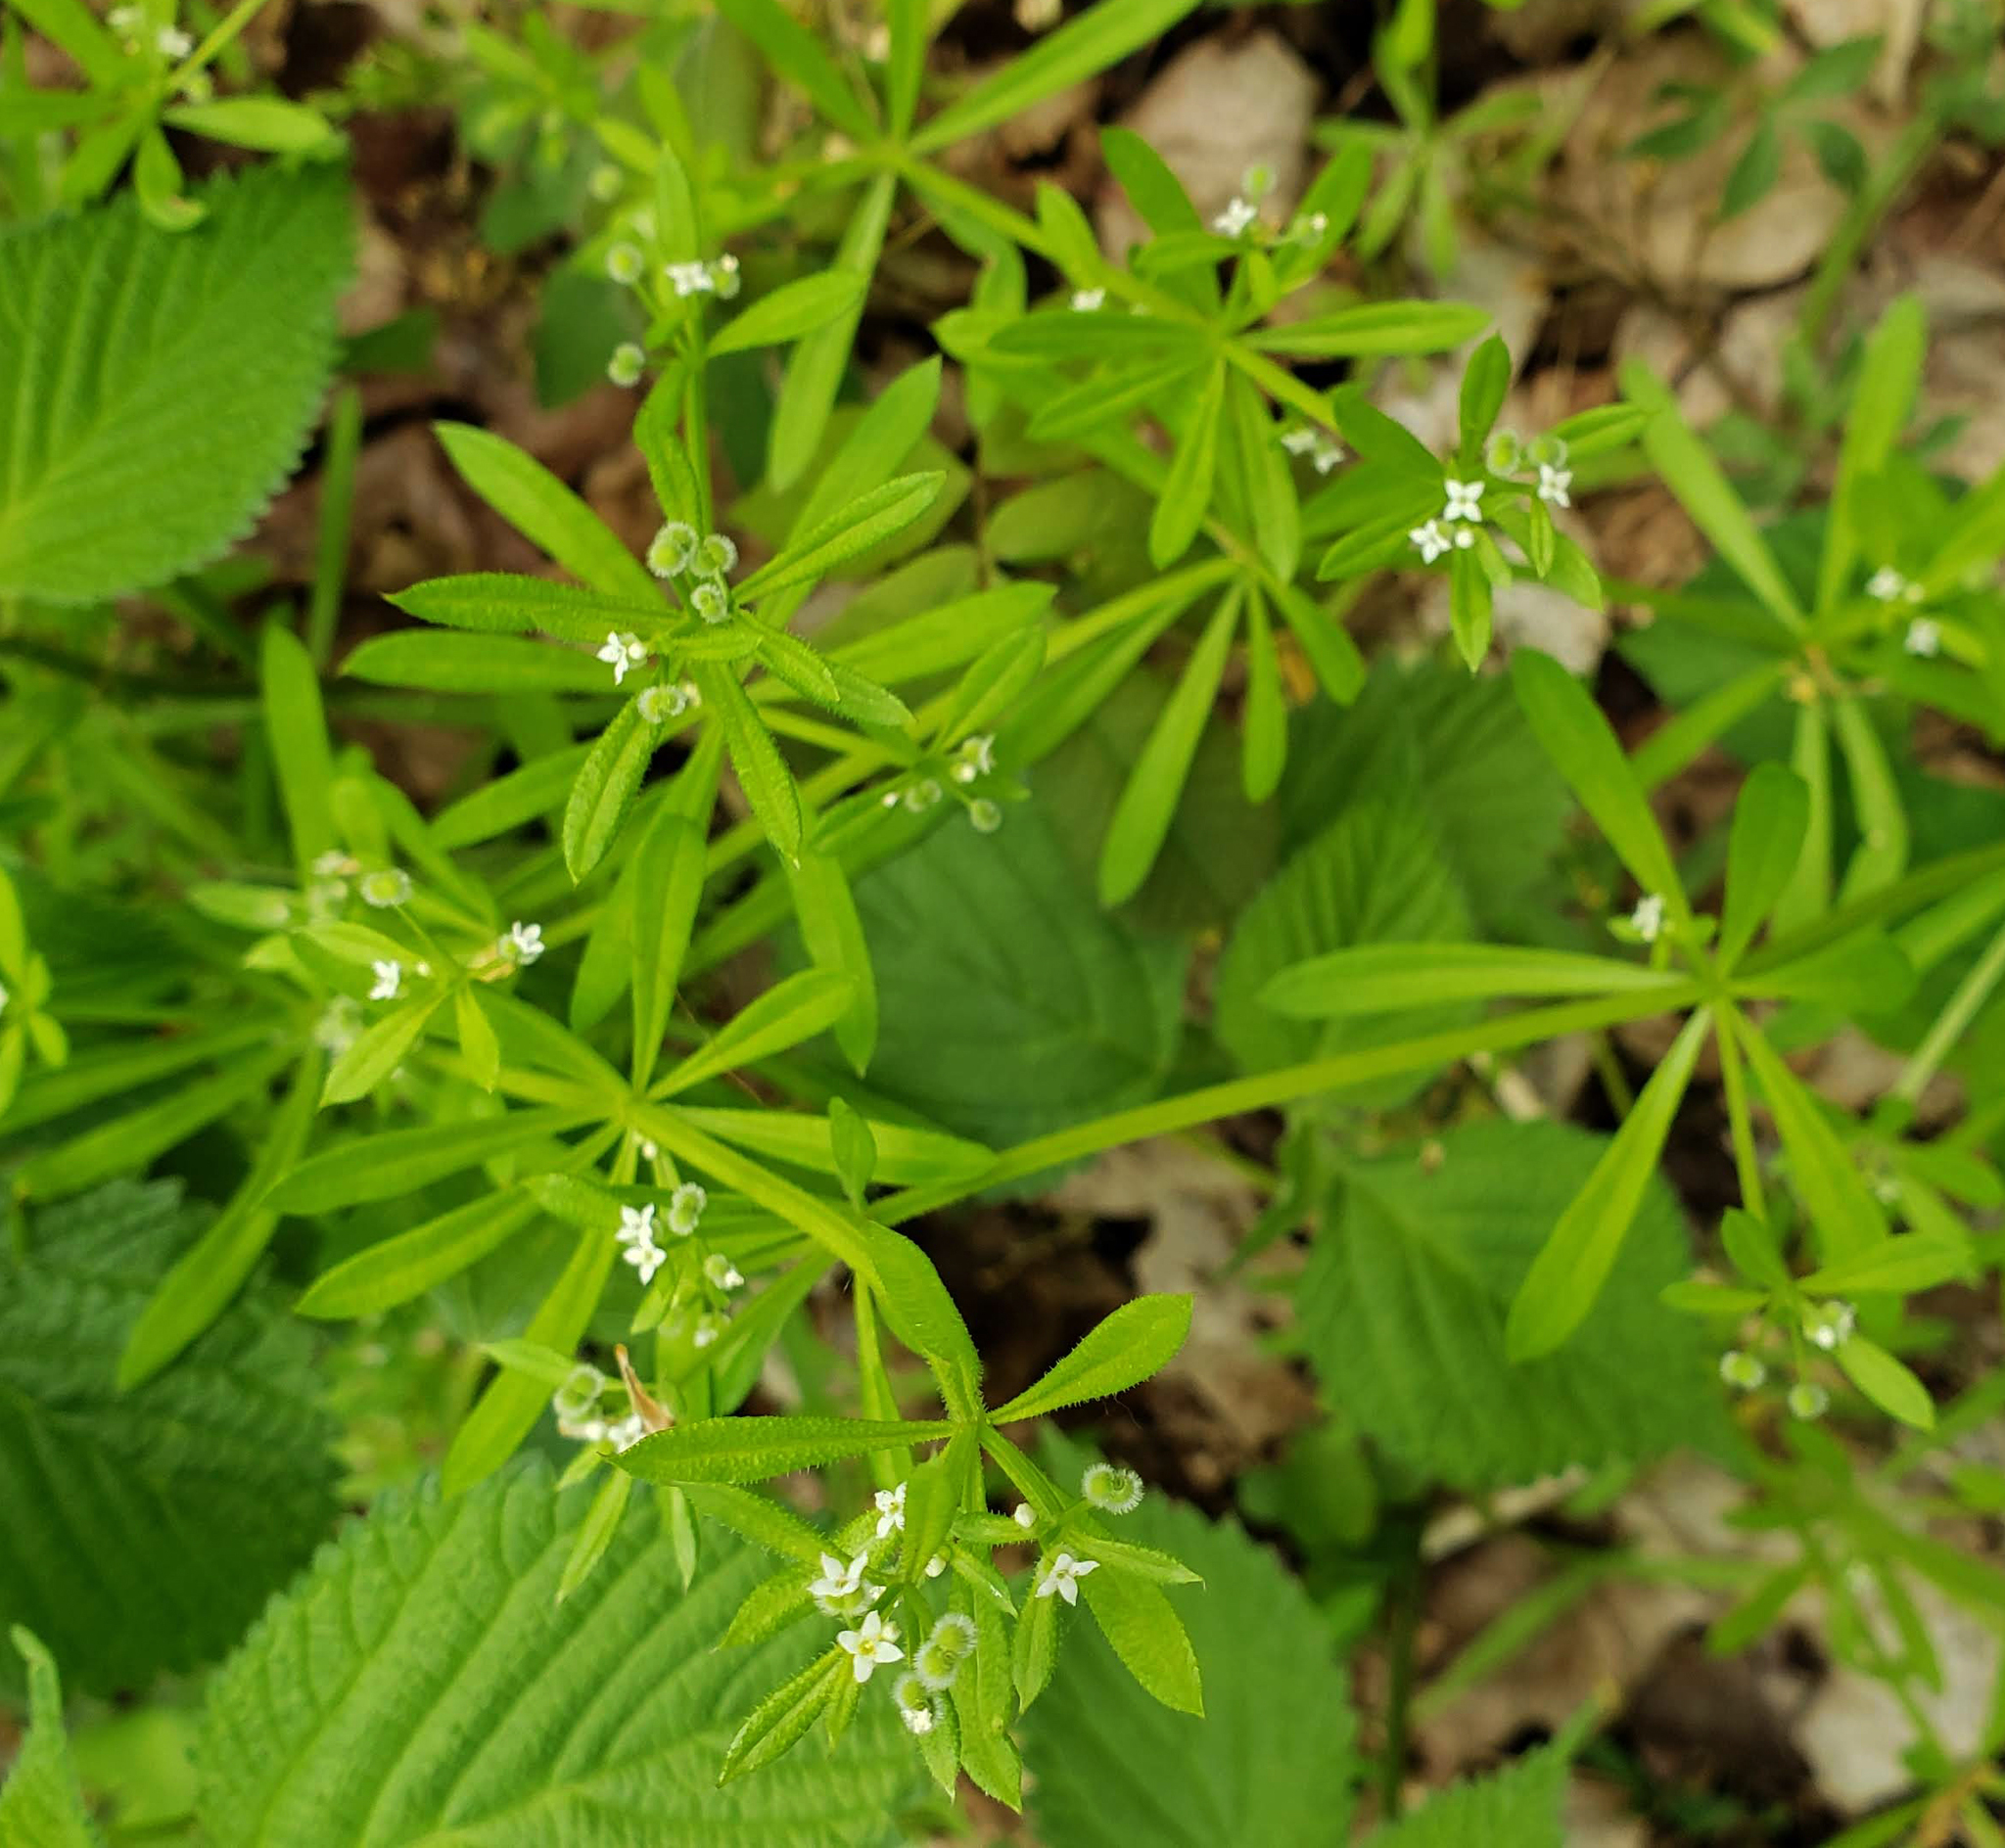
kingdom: Plantae
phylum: Tracheophyta
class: Magnoliopsida
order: Gentianales
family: Rubiaceae
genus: Galium
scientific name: Galium aparine
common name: Cleavers
